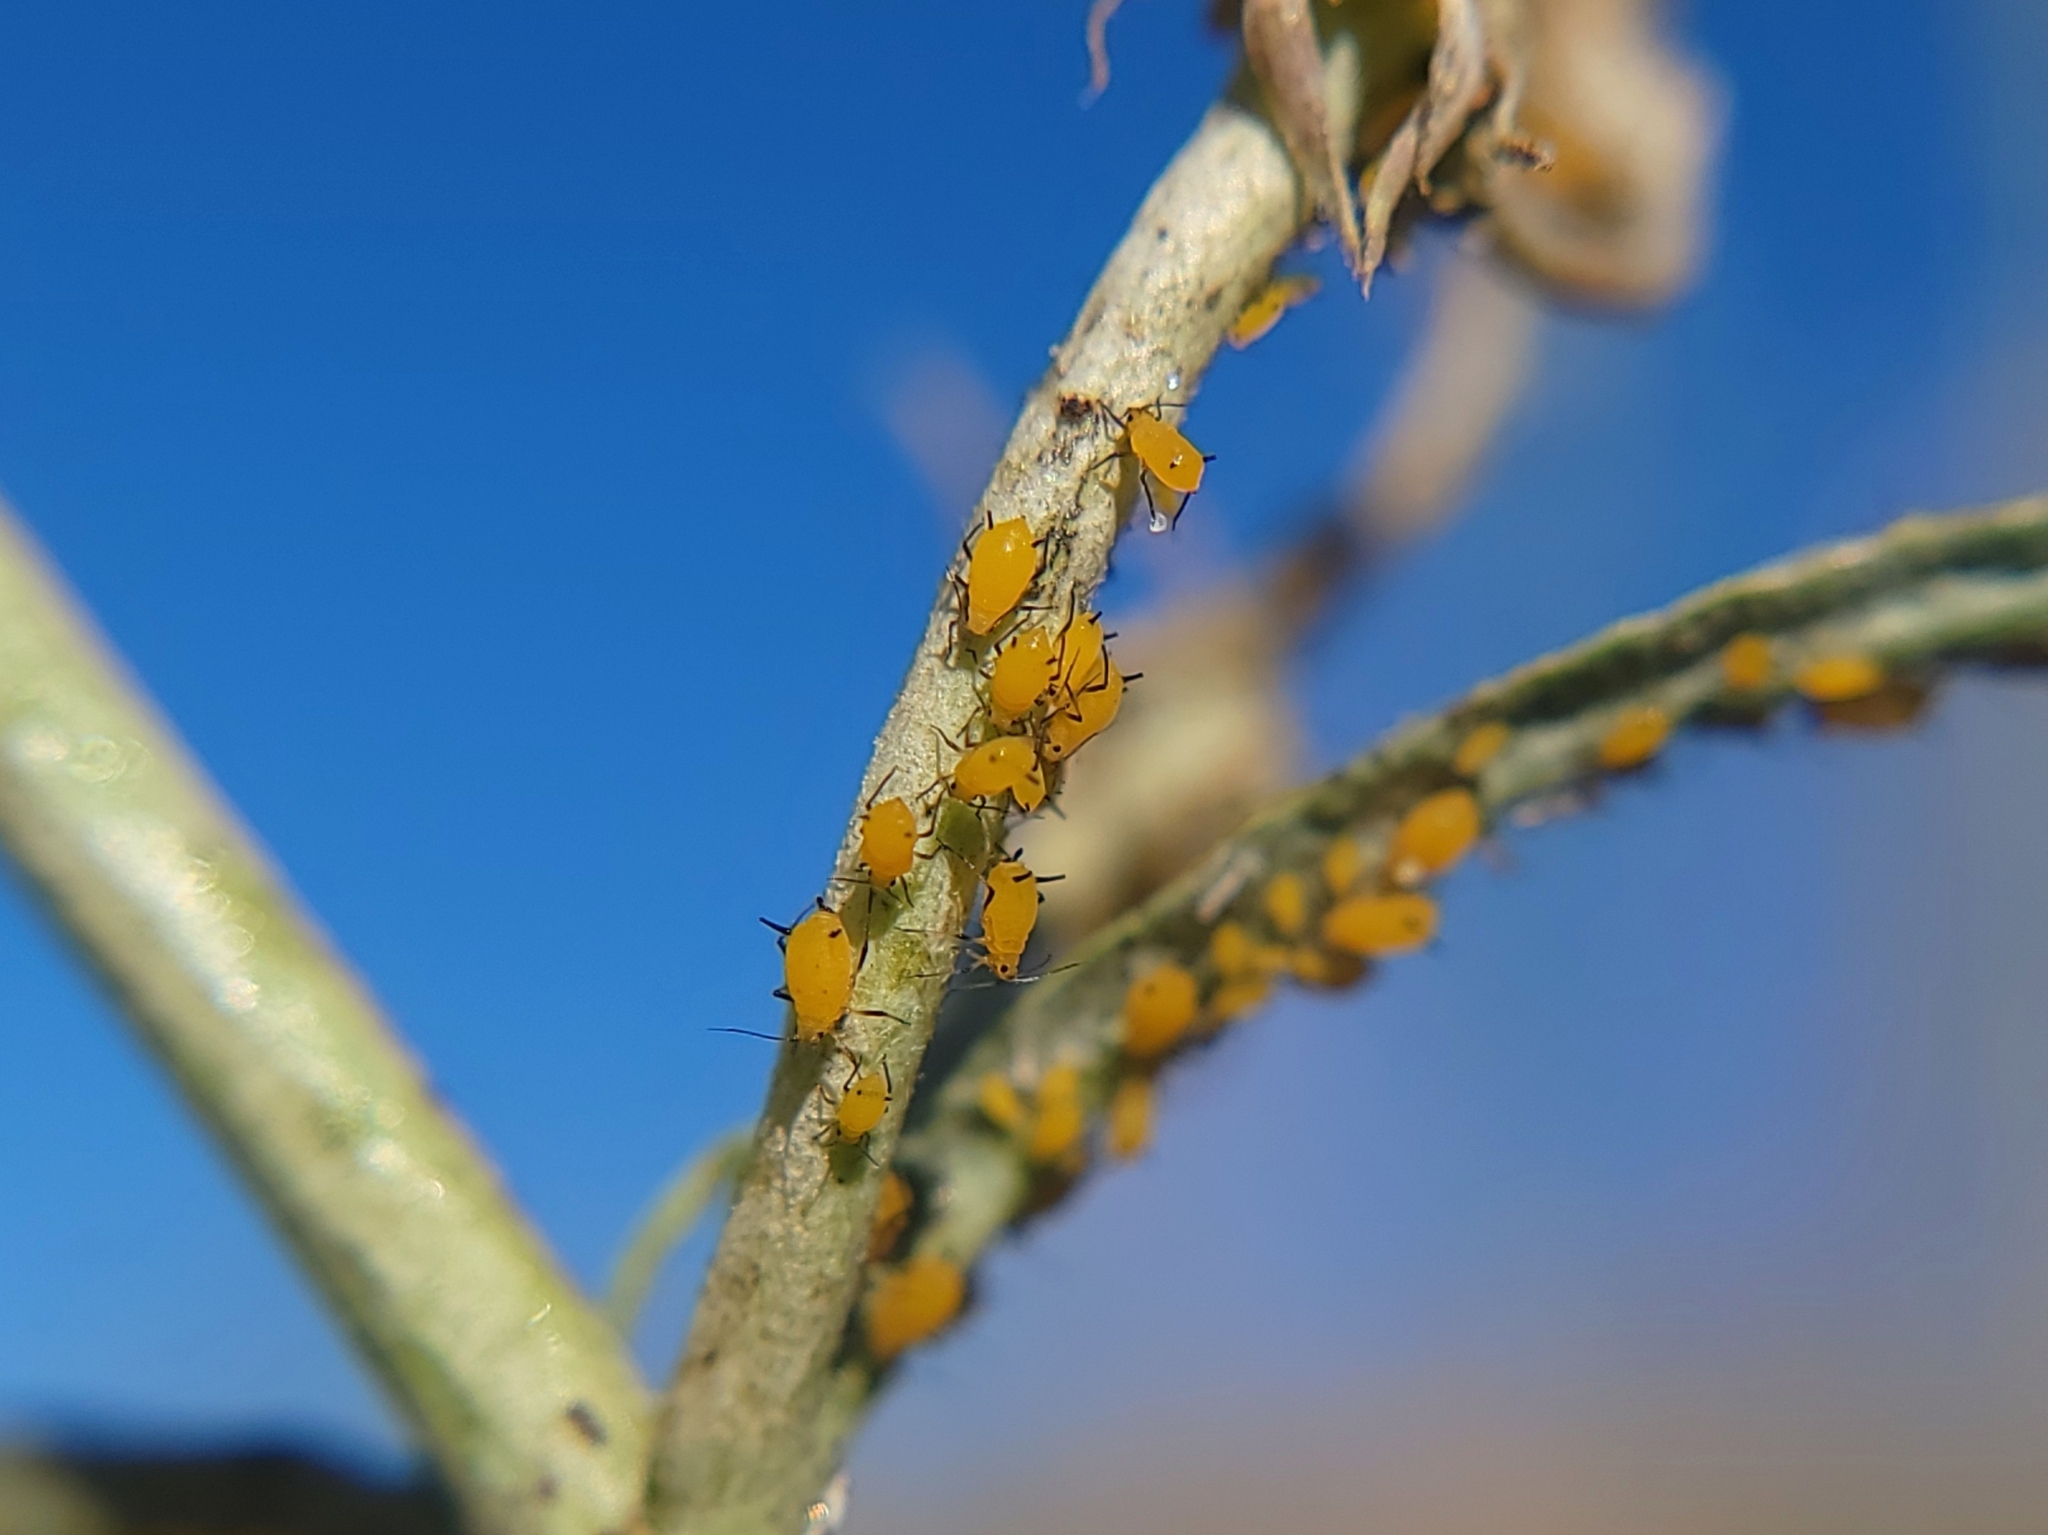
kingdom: Animalia
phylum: Arthropoda
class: Insecta
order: Hemiptera
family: Aphididae
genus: Aphis
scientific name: Aphis nerii
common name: Oleander aphid
